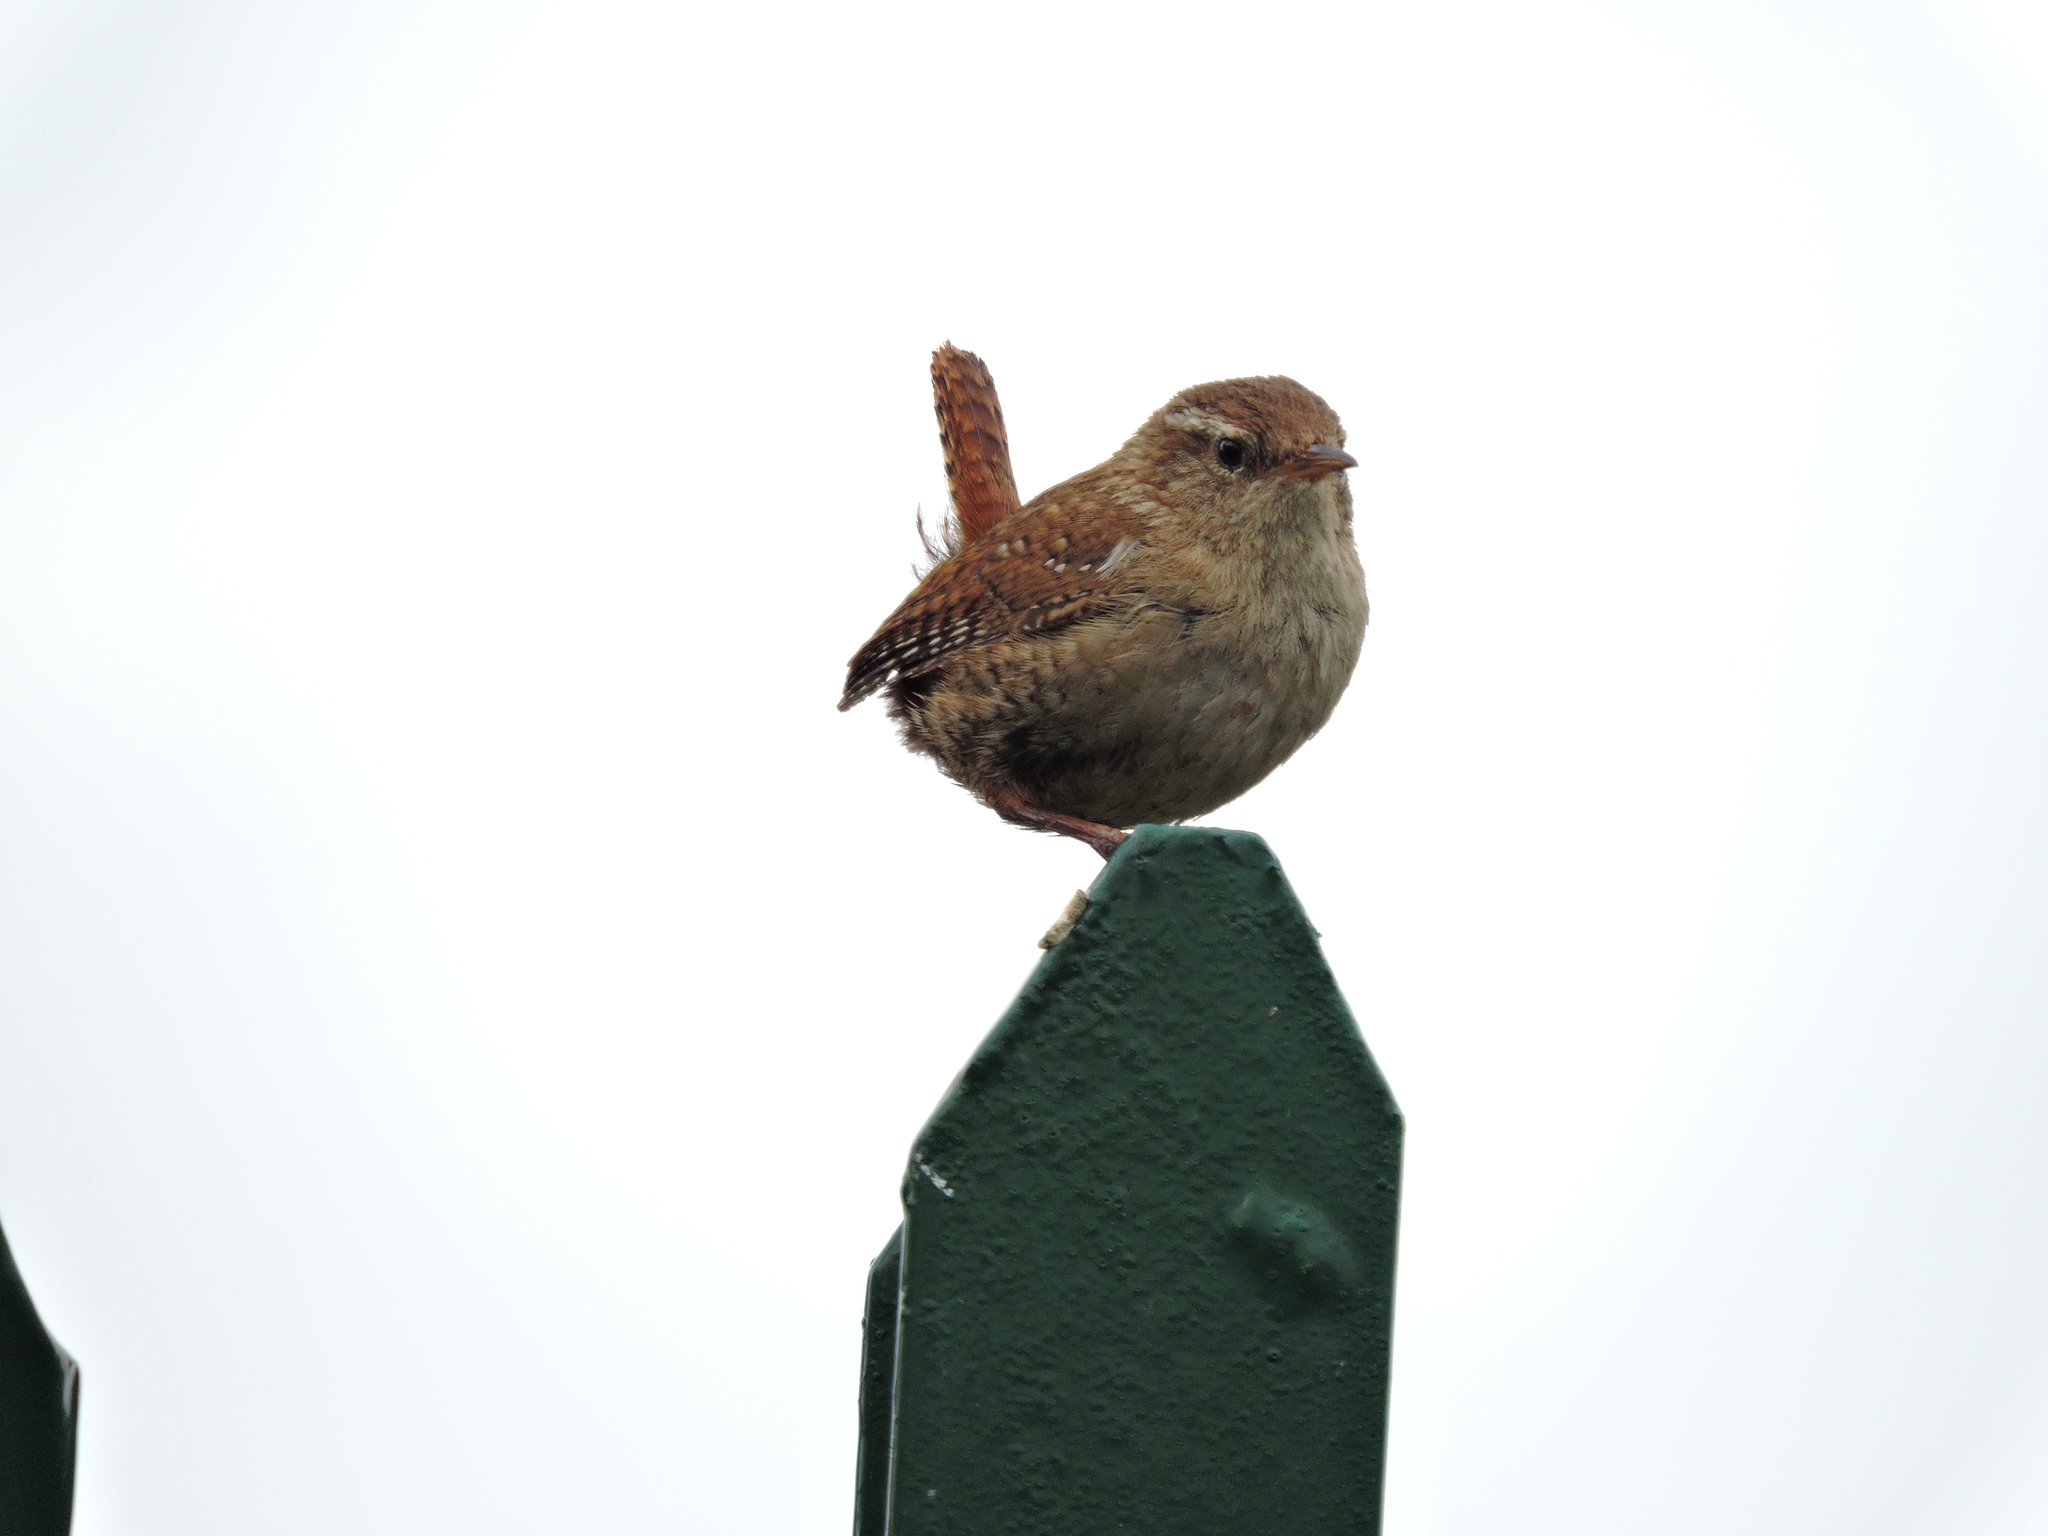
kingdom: Animalia
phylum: Chordata
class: Aves
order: Passeriformes
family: Troglodytidae
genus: Troglodytes
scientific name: Troglodytes troglodytes
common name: Eurasian wren
